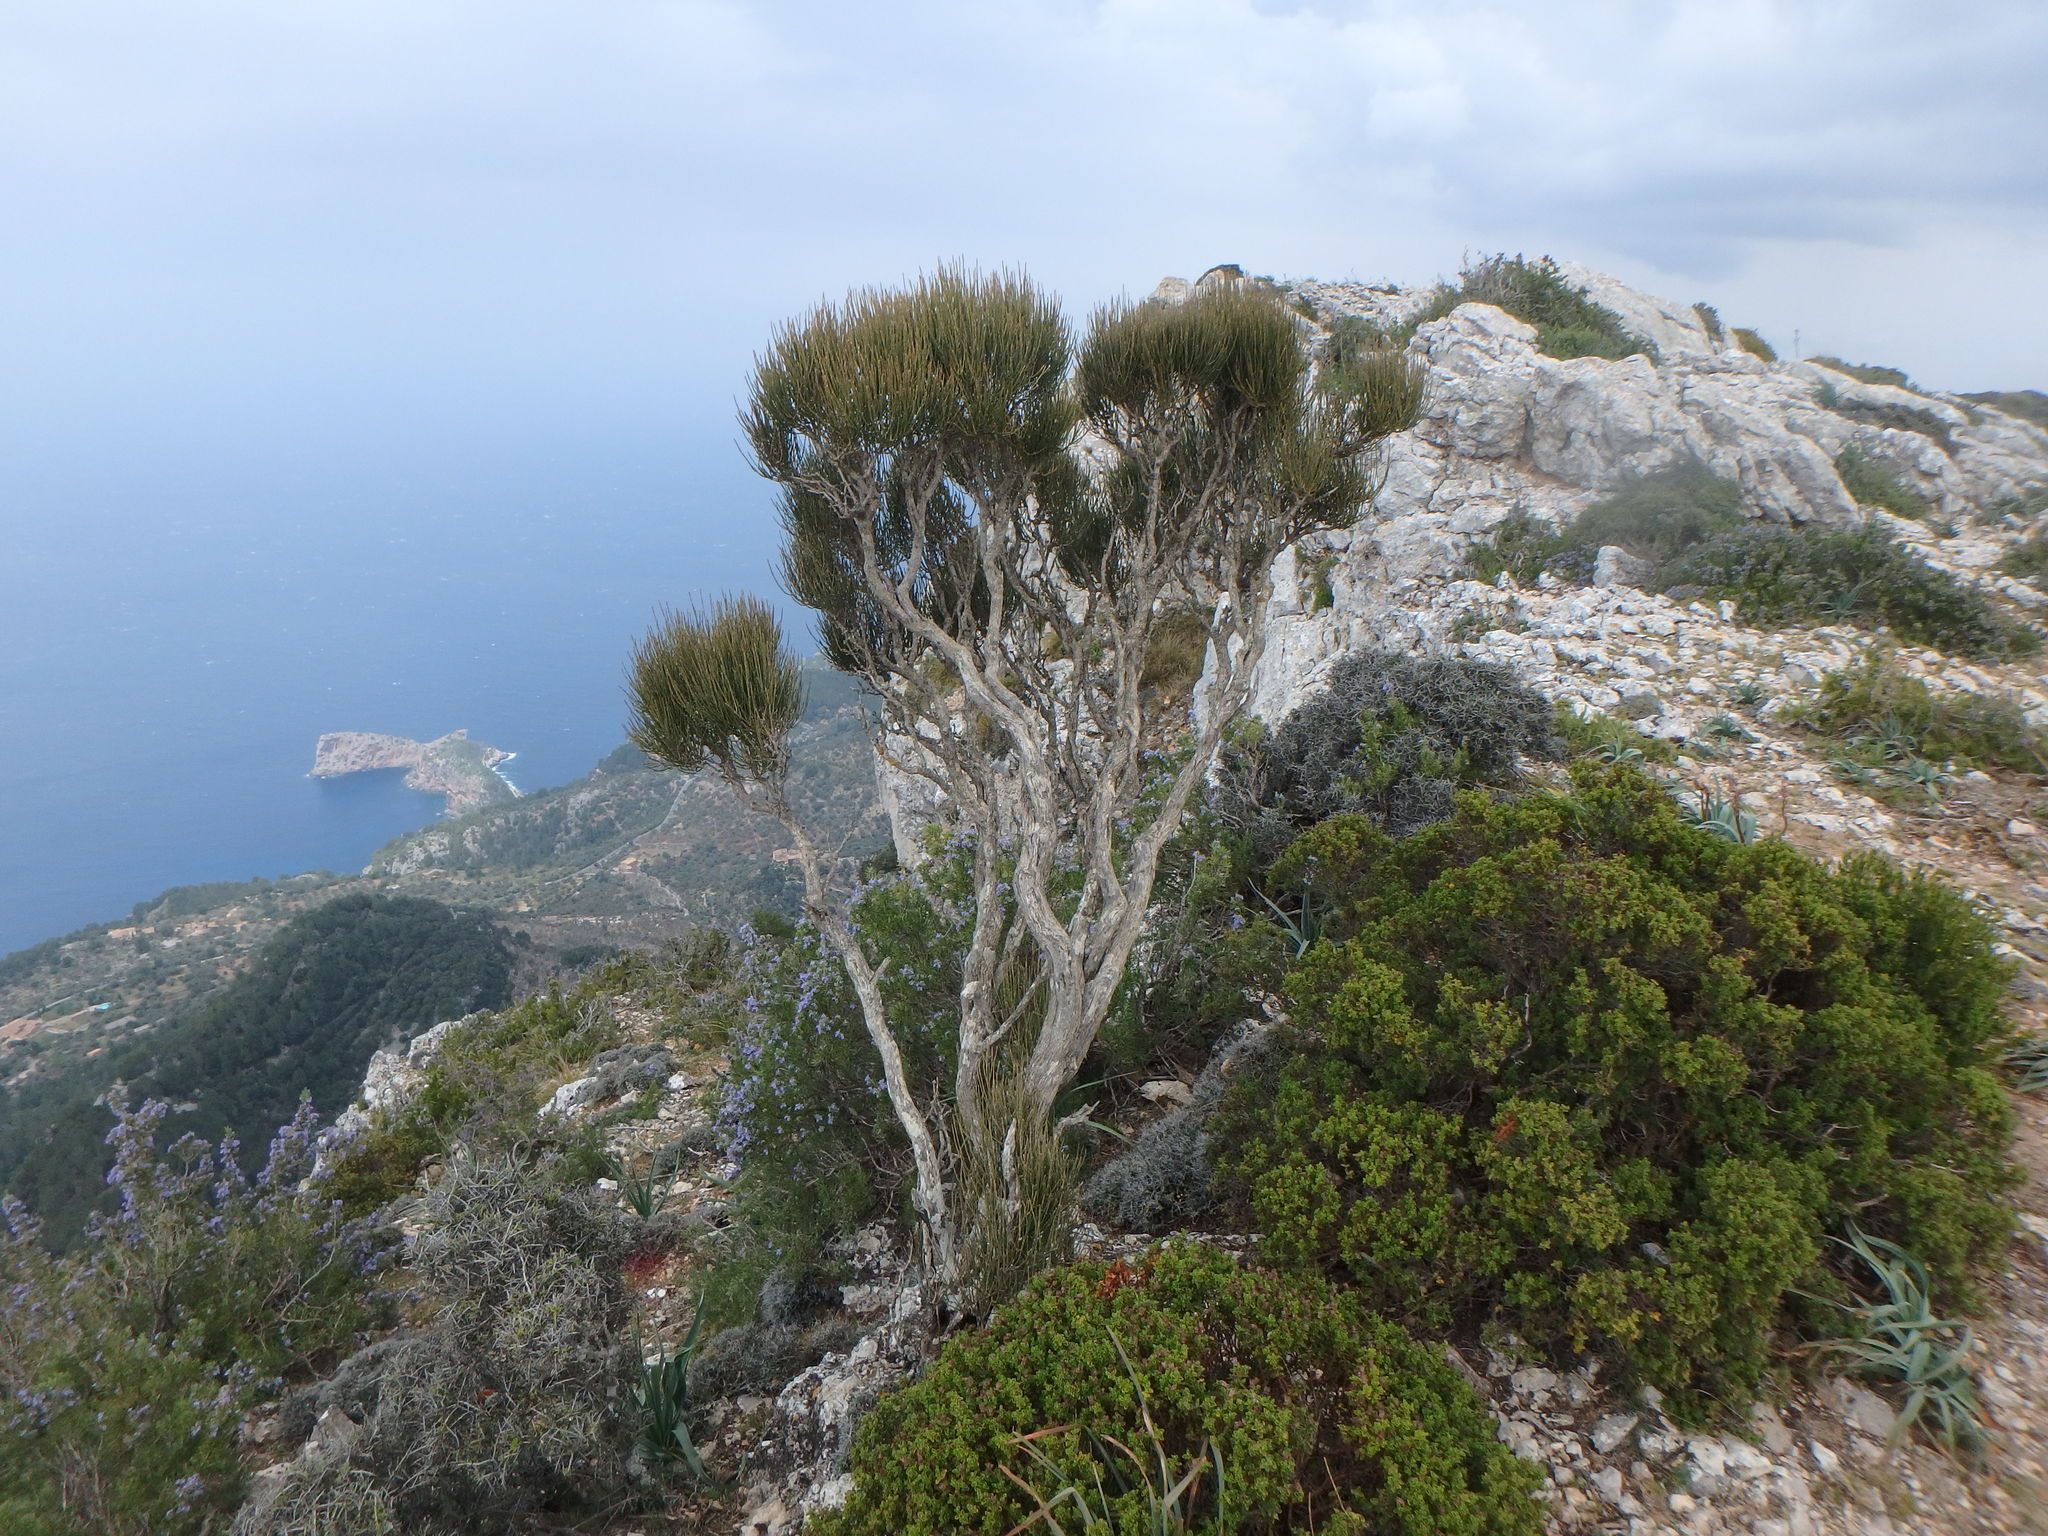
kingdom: Plantae
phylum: Tracheophyta
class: Gnetopsida
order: Ephedrales
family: Ephedraceae
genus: Ephedra
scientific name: Ephedra fragilis
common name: Joint pine
